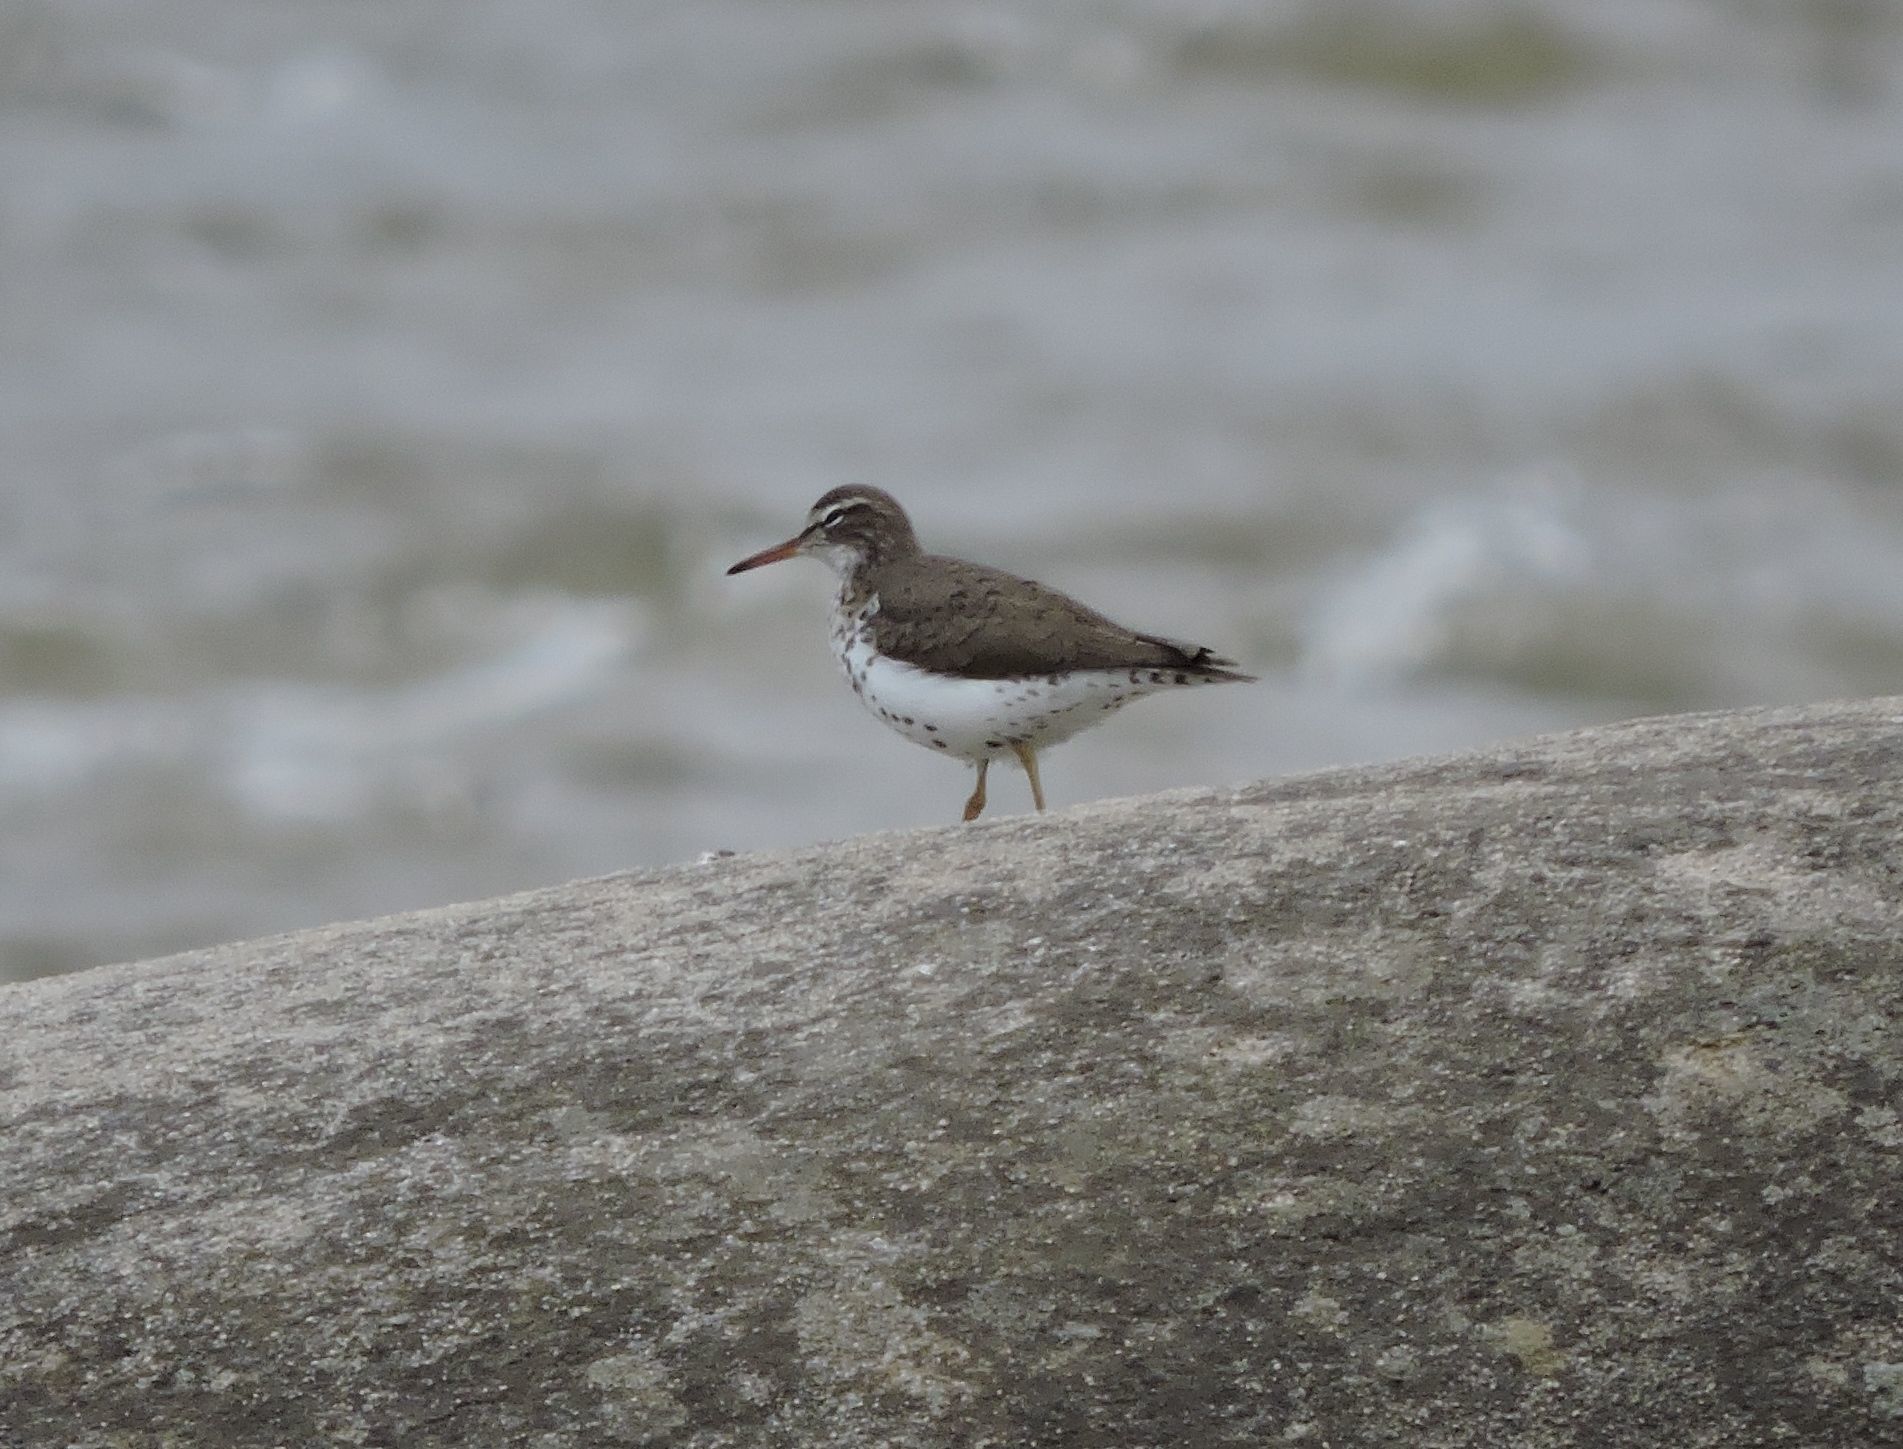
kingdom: Animalia
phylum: Chordata
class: Aves
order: Charadriiformes
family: Scolopacidae
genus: Actitis
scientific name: Actitis macularius
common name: Spotted sandpiper
